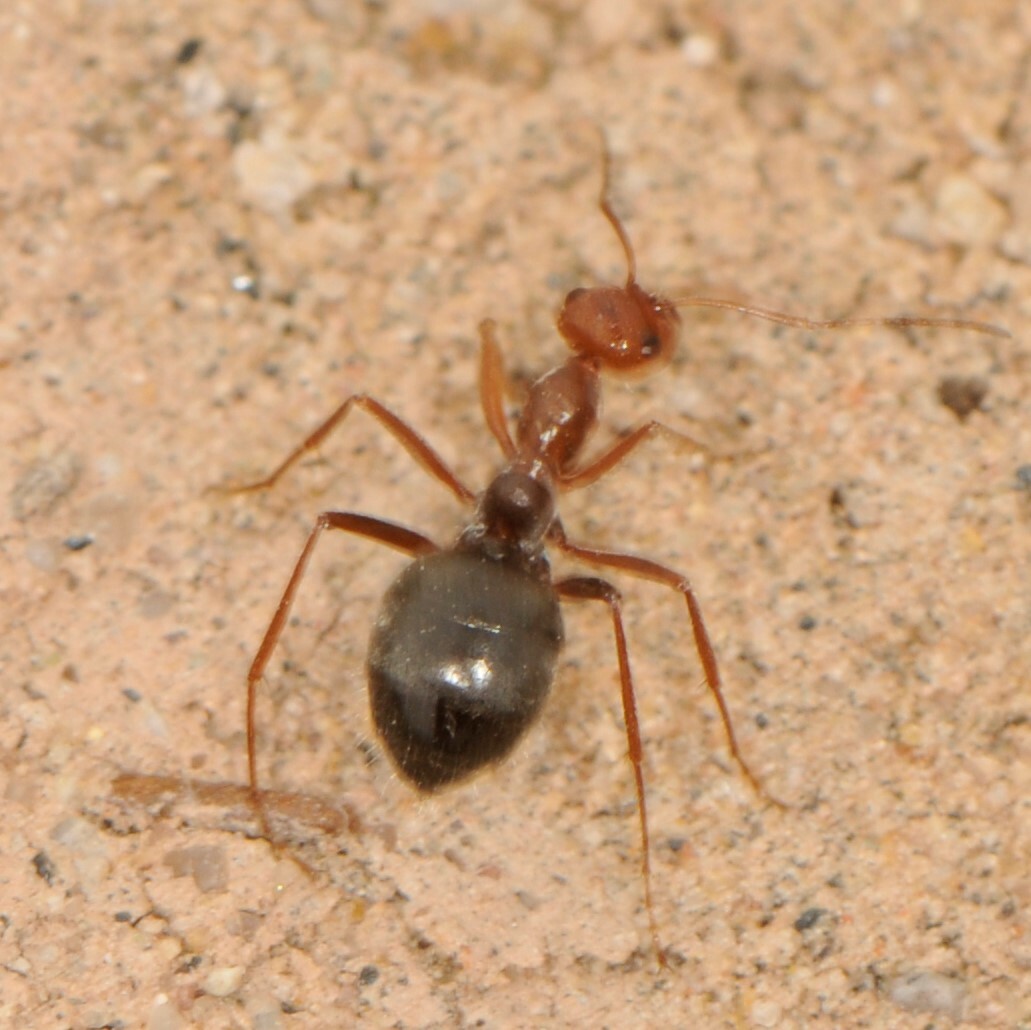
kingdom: Animalia
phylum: Arthropoda
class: Insecta
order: Hymenoptera
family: Formicidae
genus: Myrmecocystus
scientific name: Myrmecocystus
